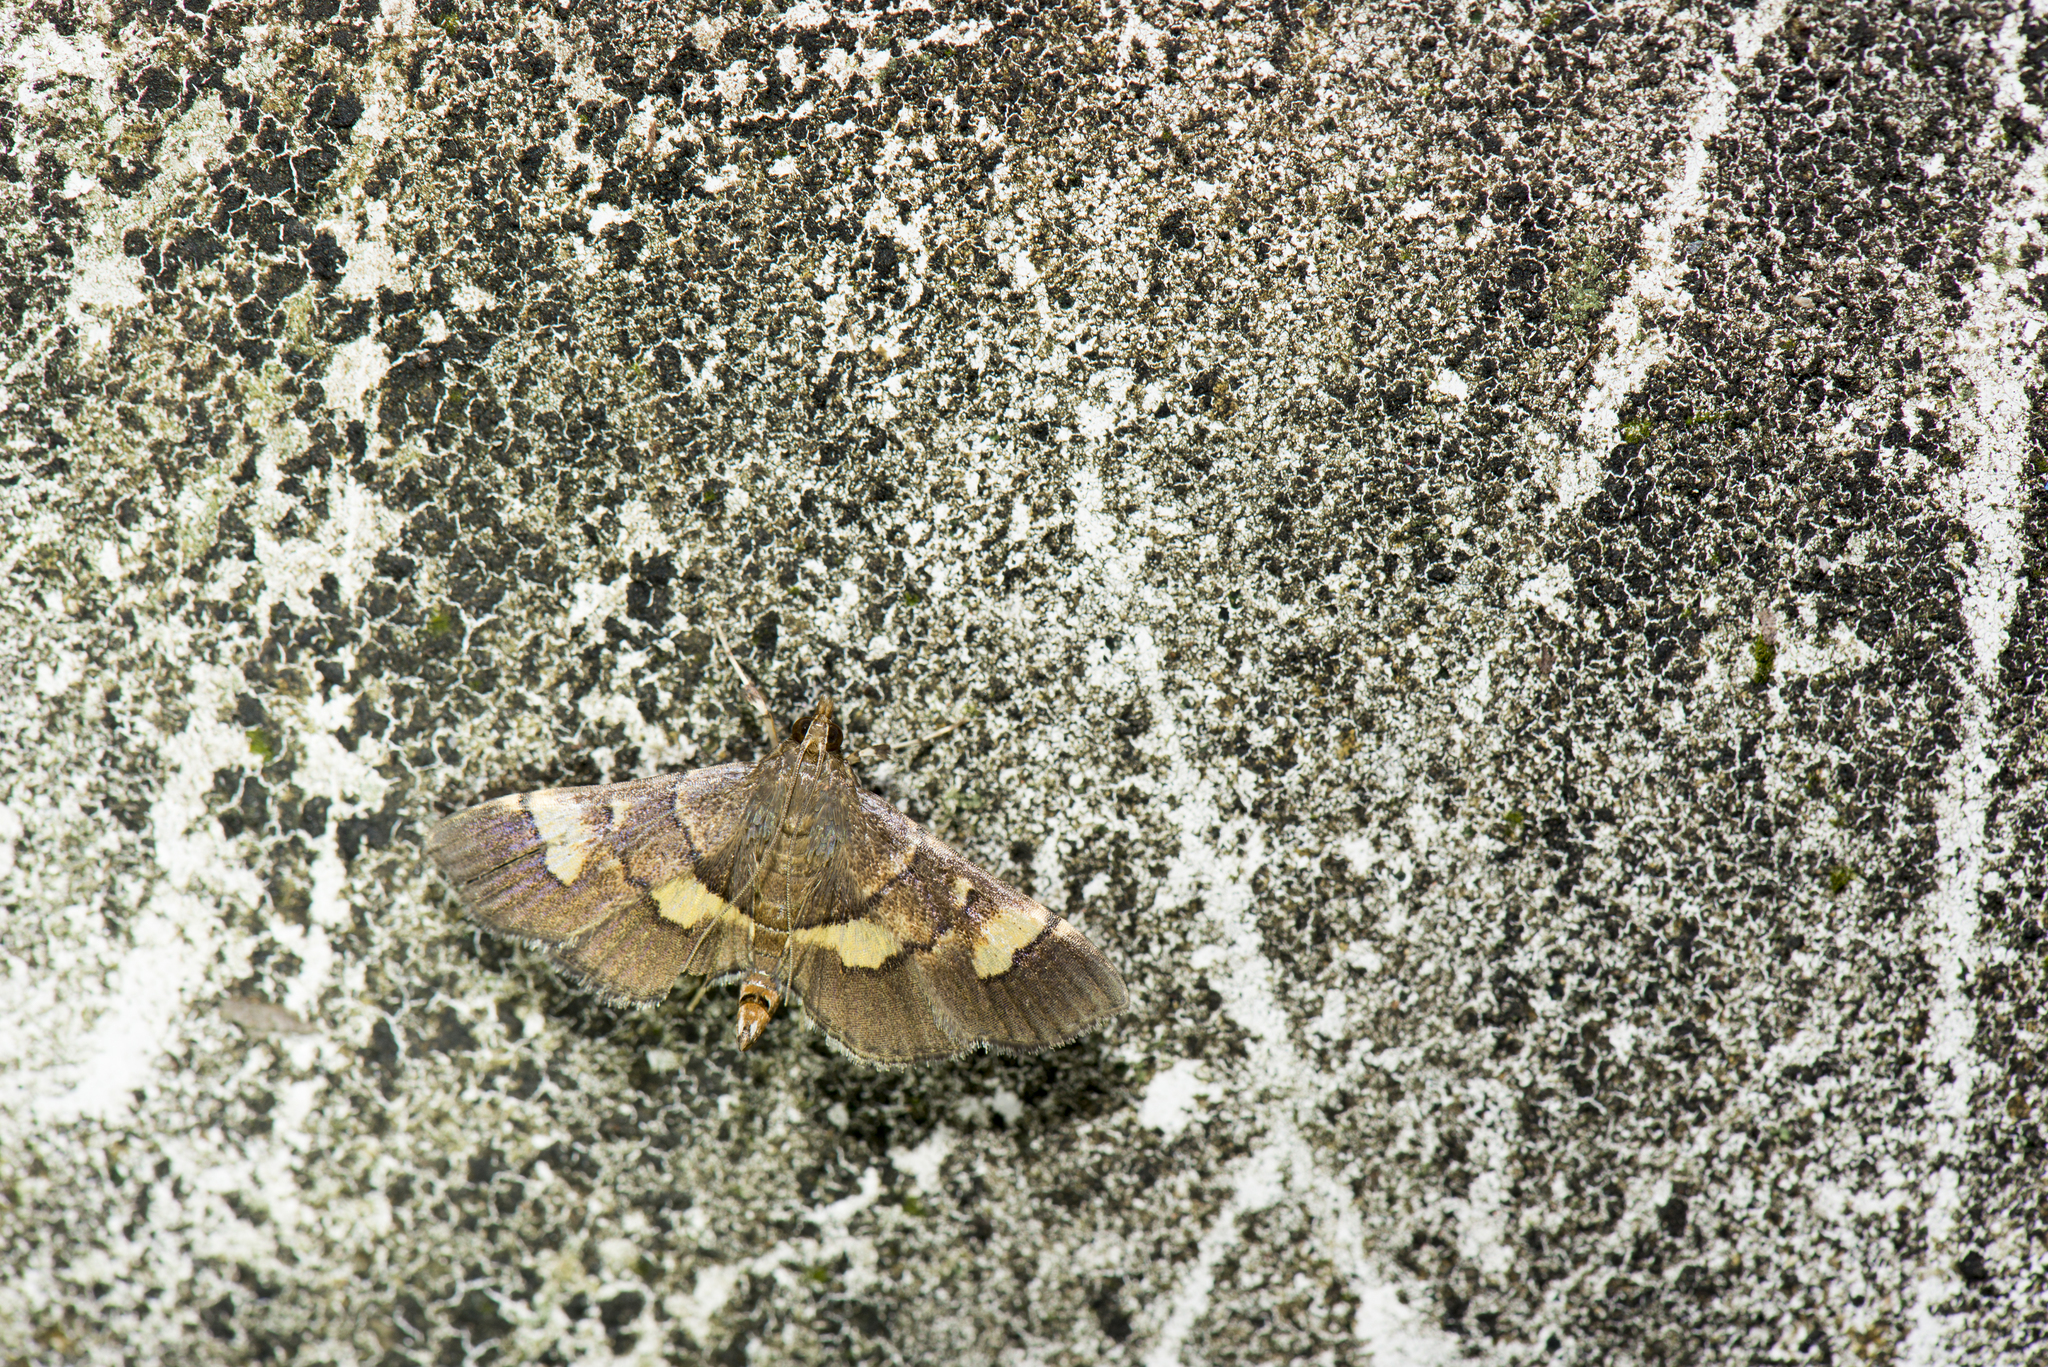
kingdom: Animalia
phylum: Arthropoda
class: Insecta
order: Lepidoptera
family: Crambidae
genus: Syngamia
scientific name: Syngamia falsidicalis
